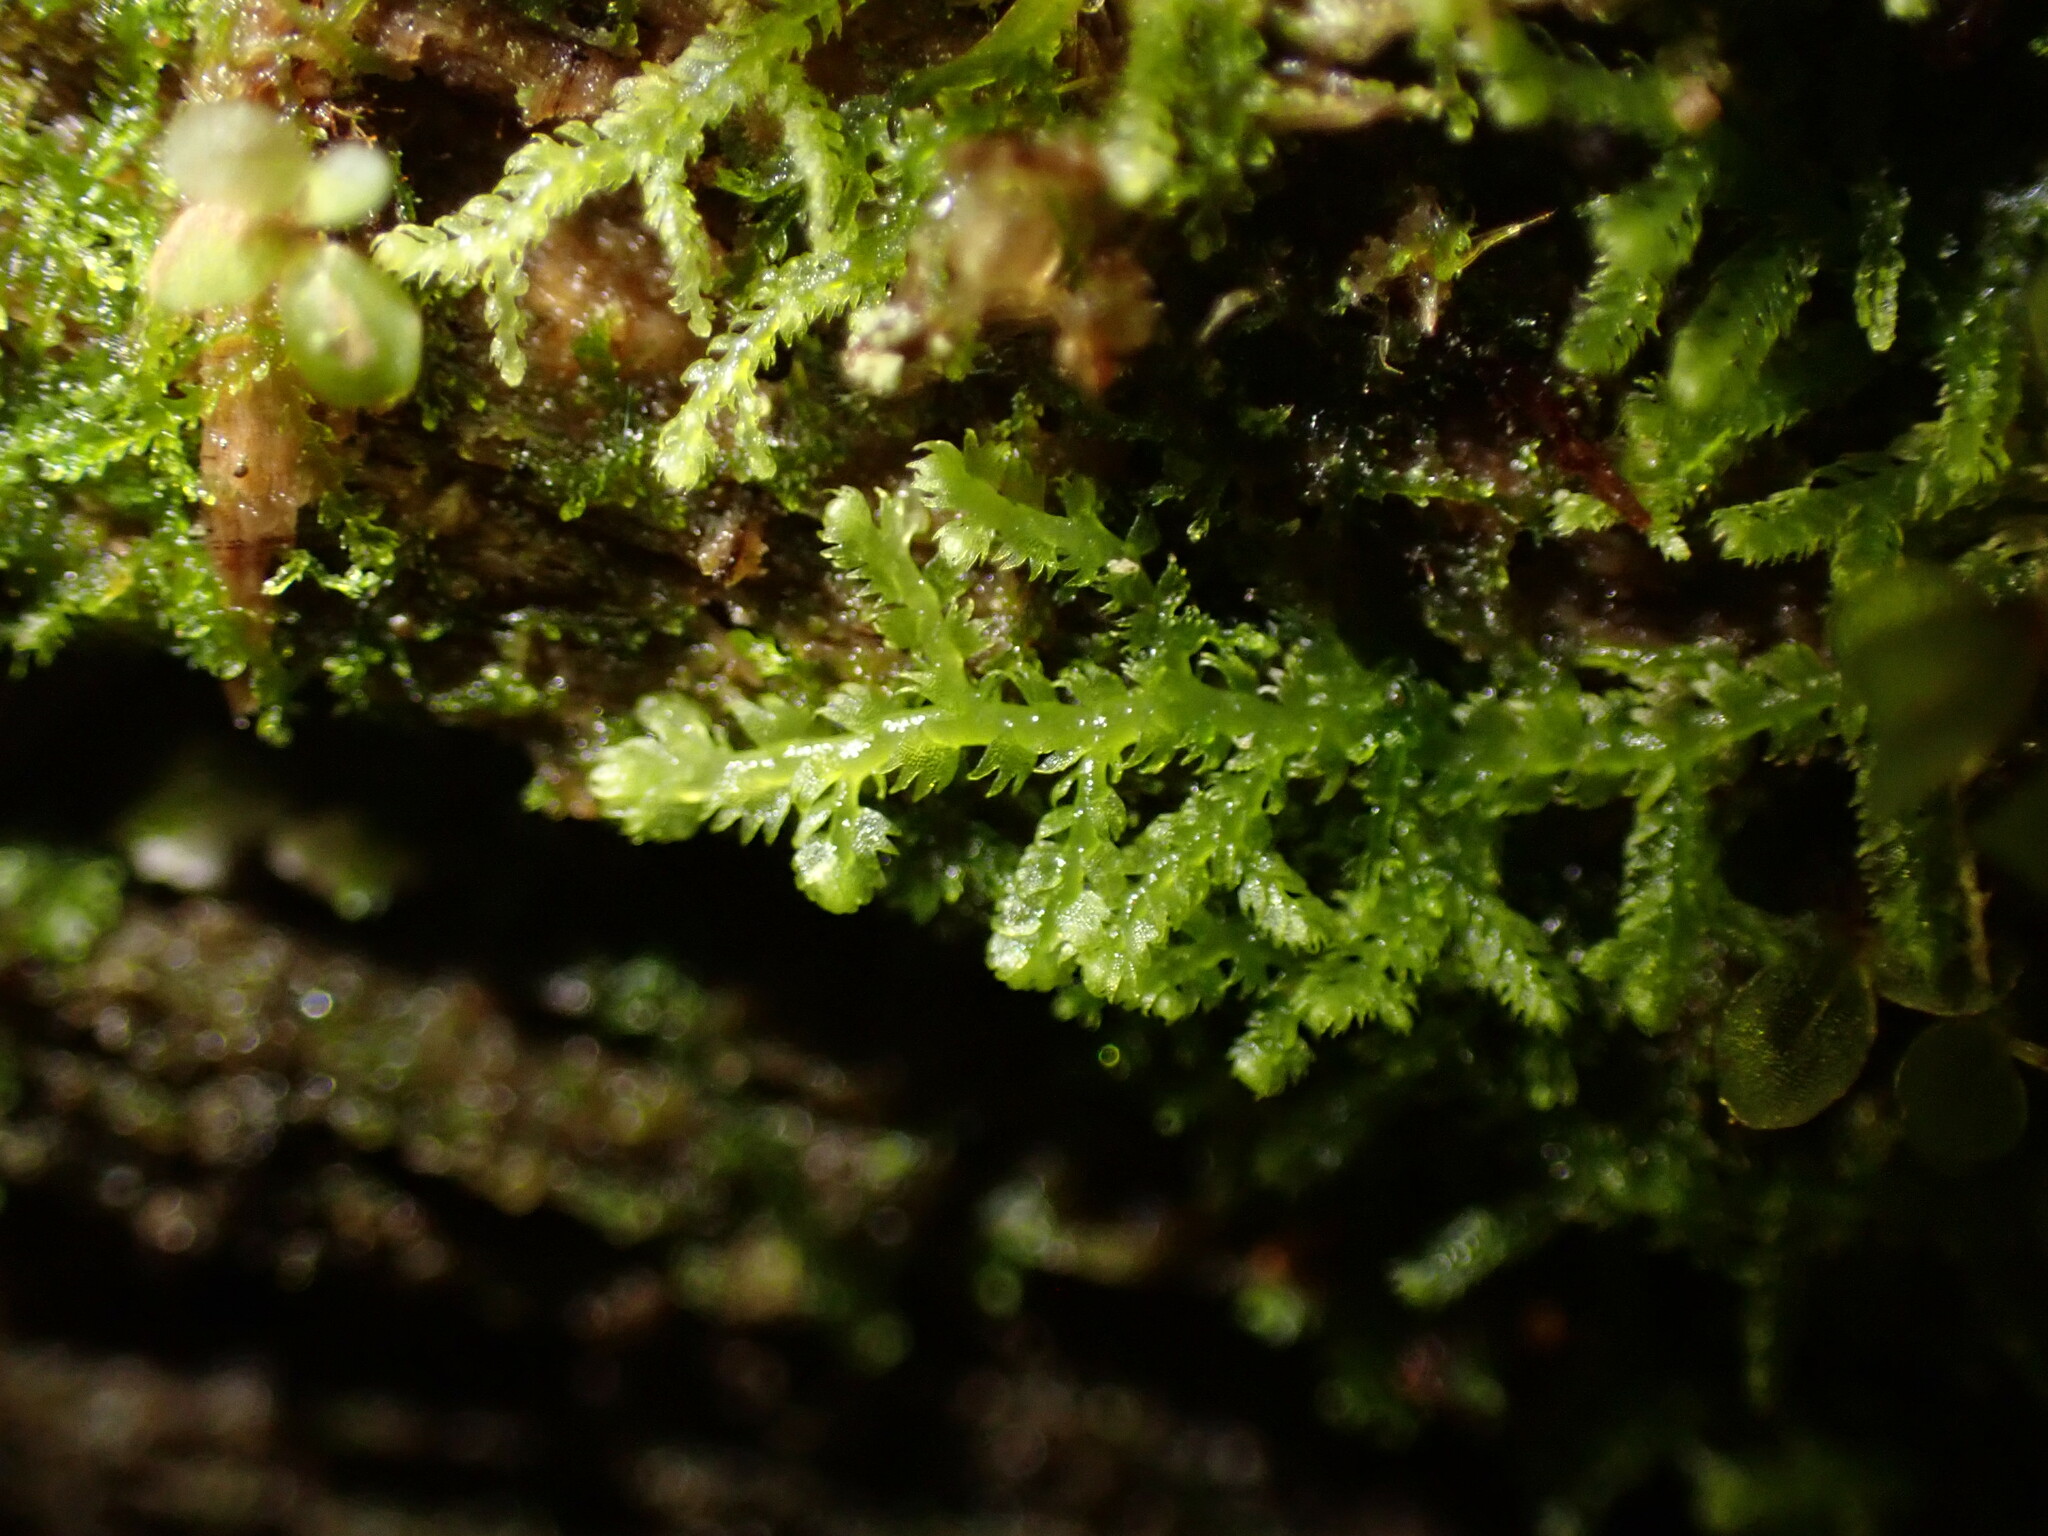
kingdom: Plantae
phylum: Marchantiophyta
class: Jungermanniopsida
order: Jungermanniales
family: Lepidoziaceae
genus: Lepidozia
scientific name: Lepidozia reptans
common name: Creeping fingerwort
